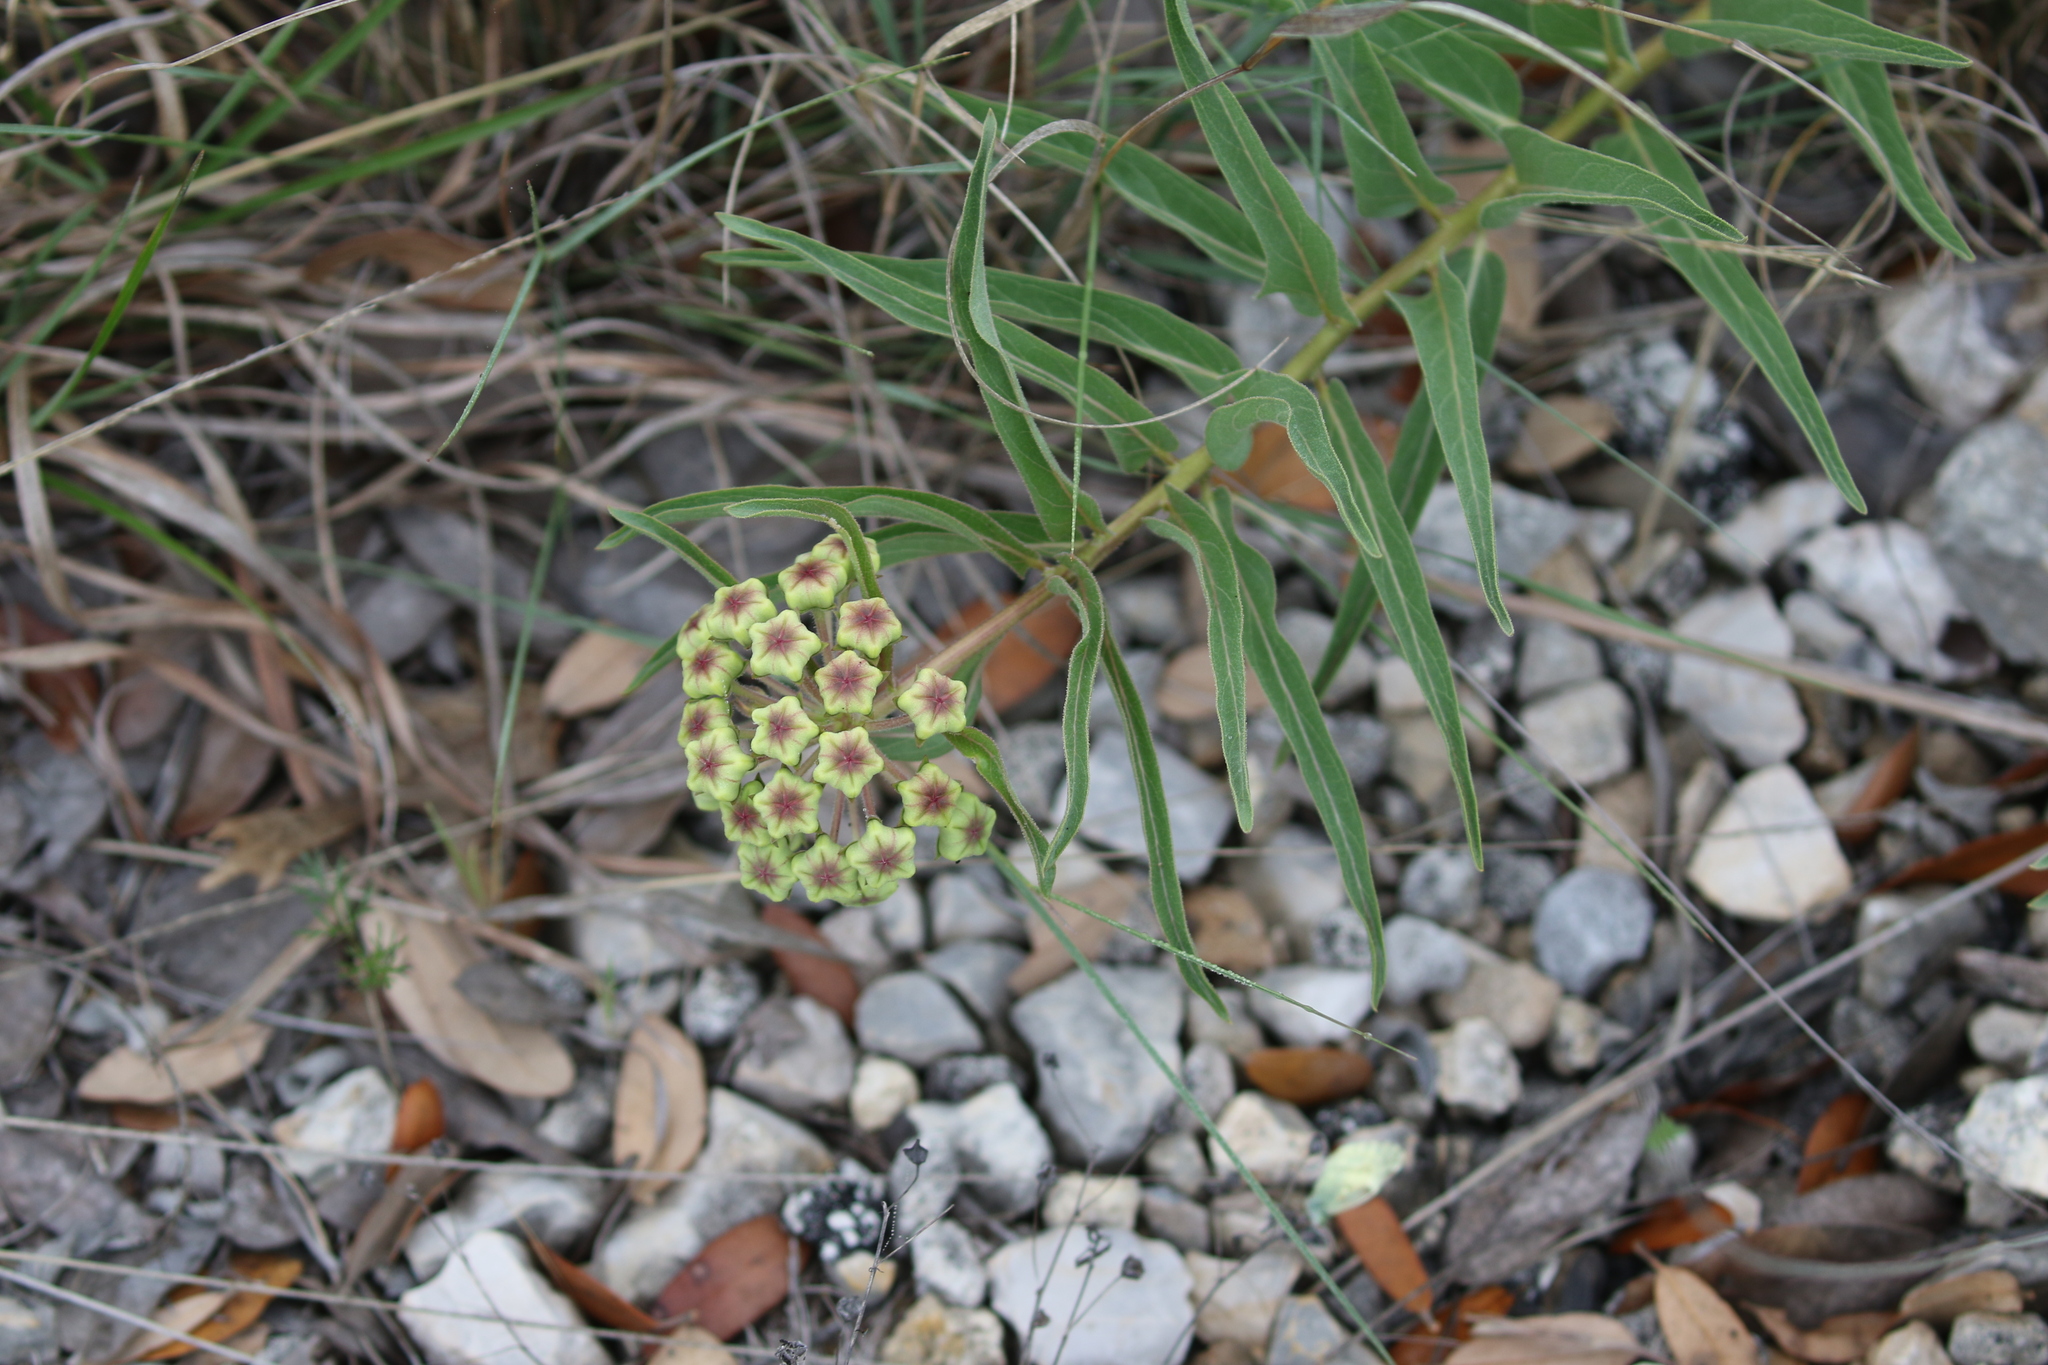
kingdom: Plantae
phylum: Tracheophyta
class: Magnoliopsida
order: Gentianales
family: Apocynaceae
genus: Asclepias
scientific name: Asclepias asperula
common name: Antelope horns
